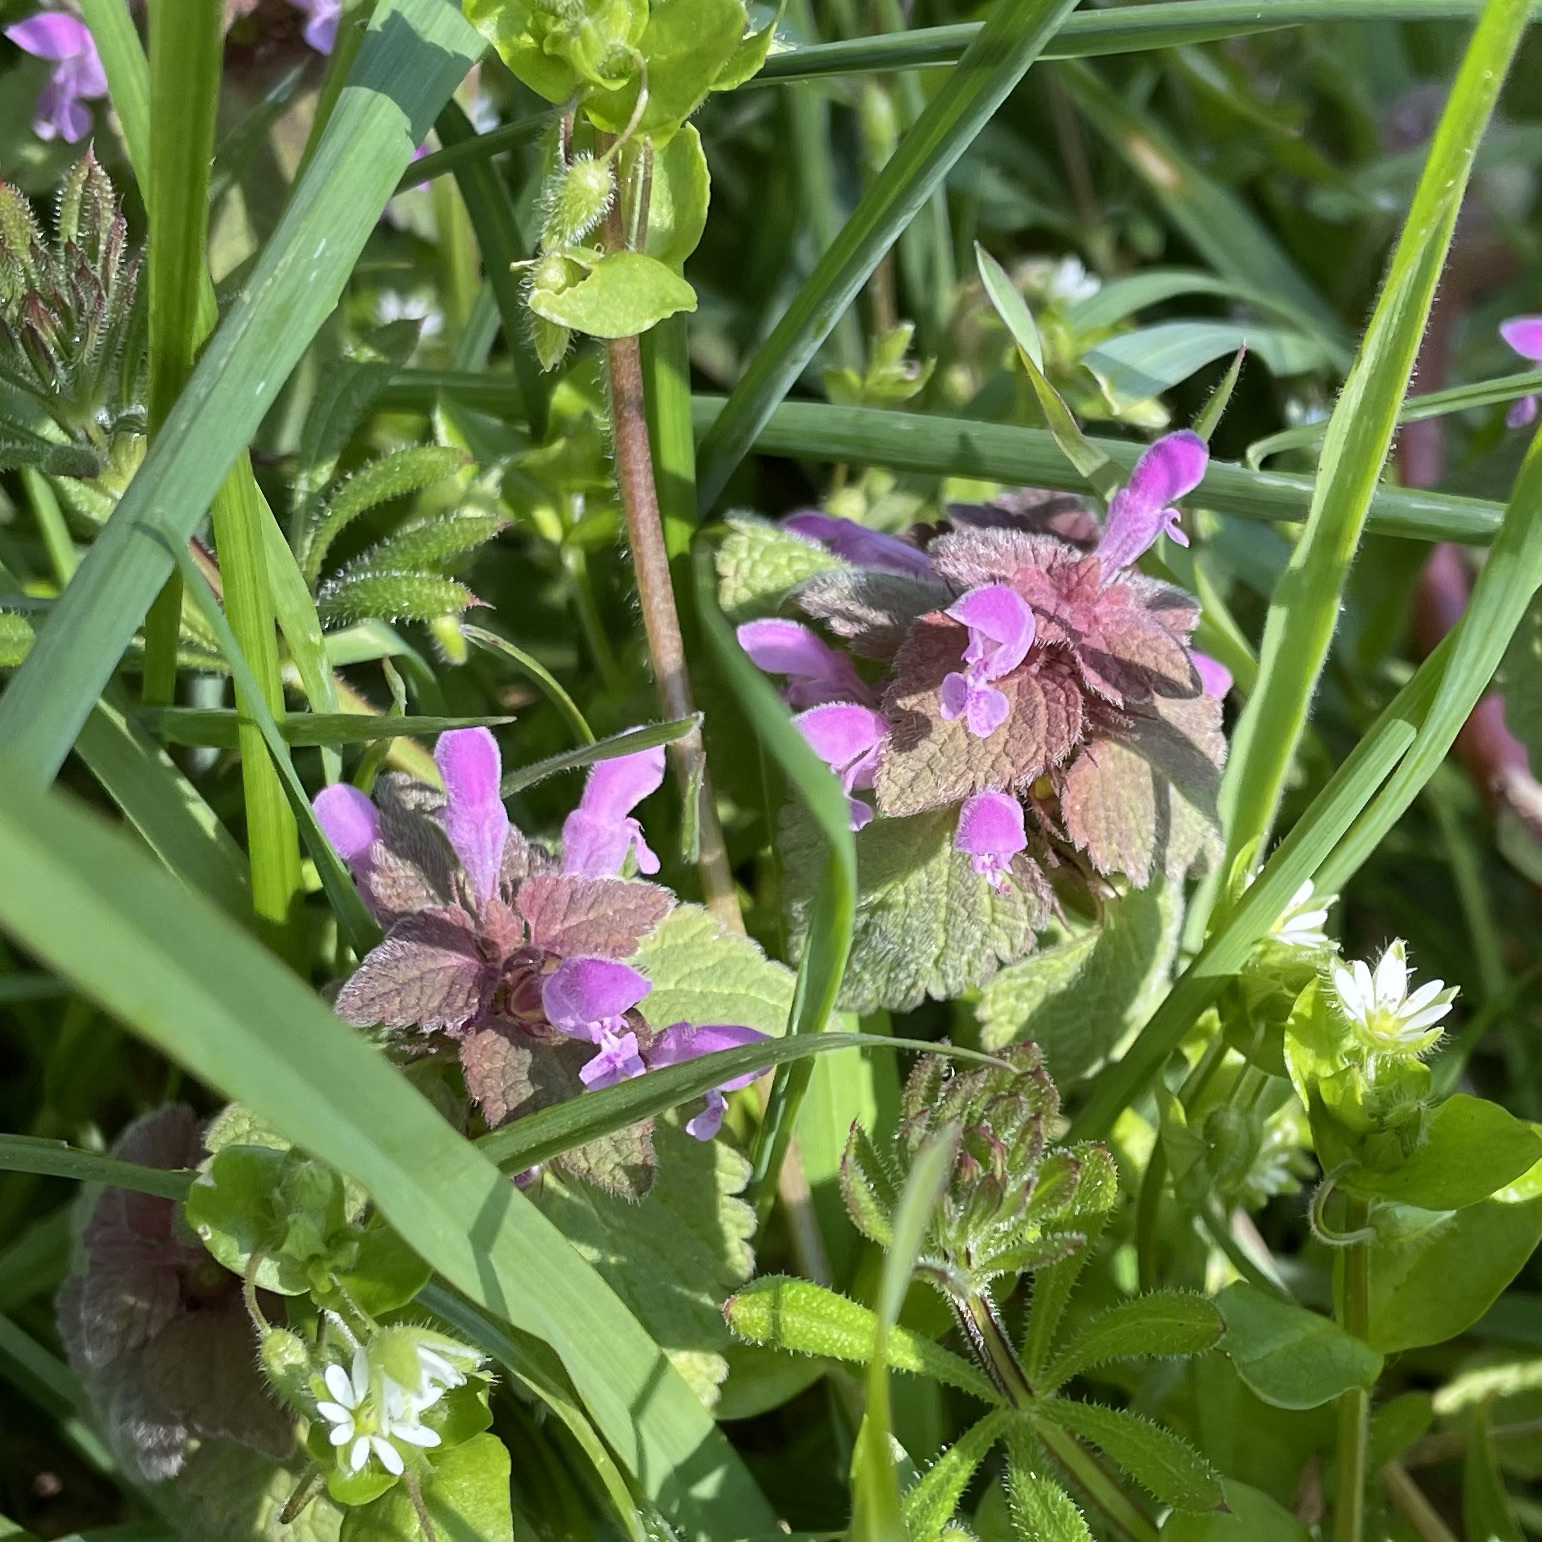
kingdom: Plantae
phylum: Tracheophyta
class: Magnoliopsida
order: Lamiales
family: Lamiaceae
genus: Lamium
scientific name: Lamium purpureum
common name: Red dead-nettle
